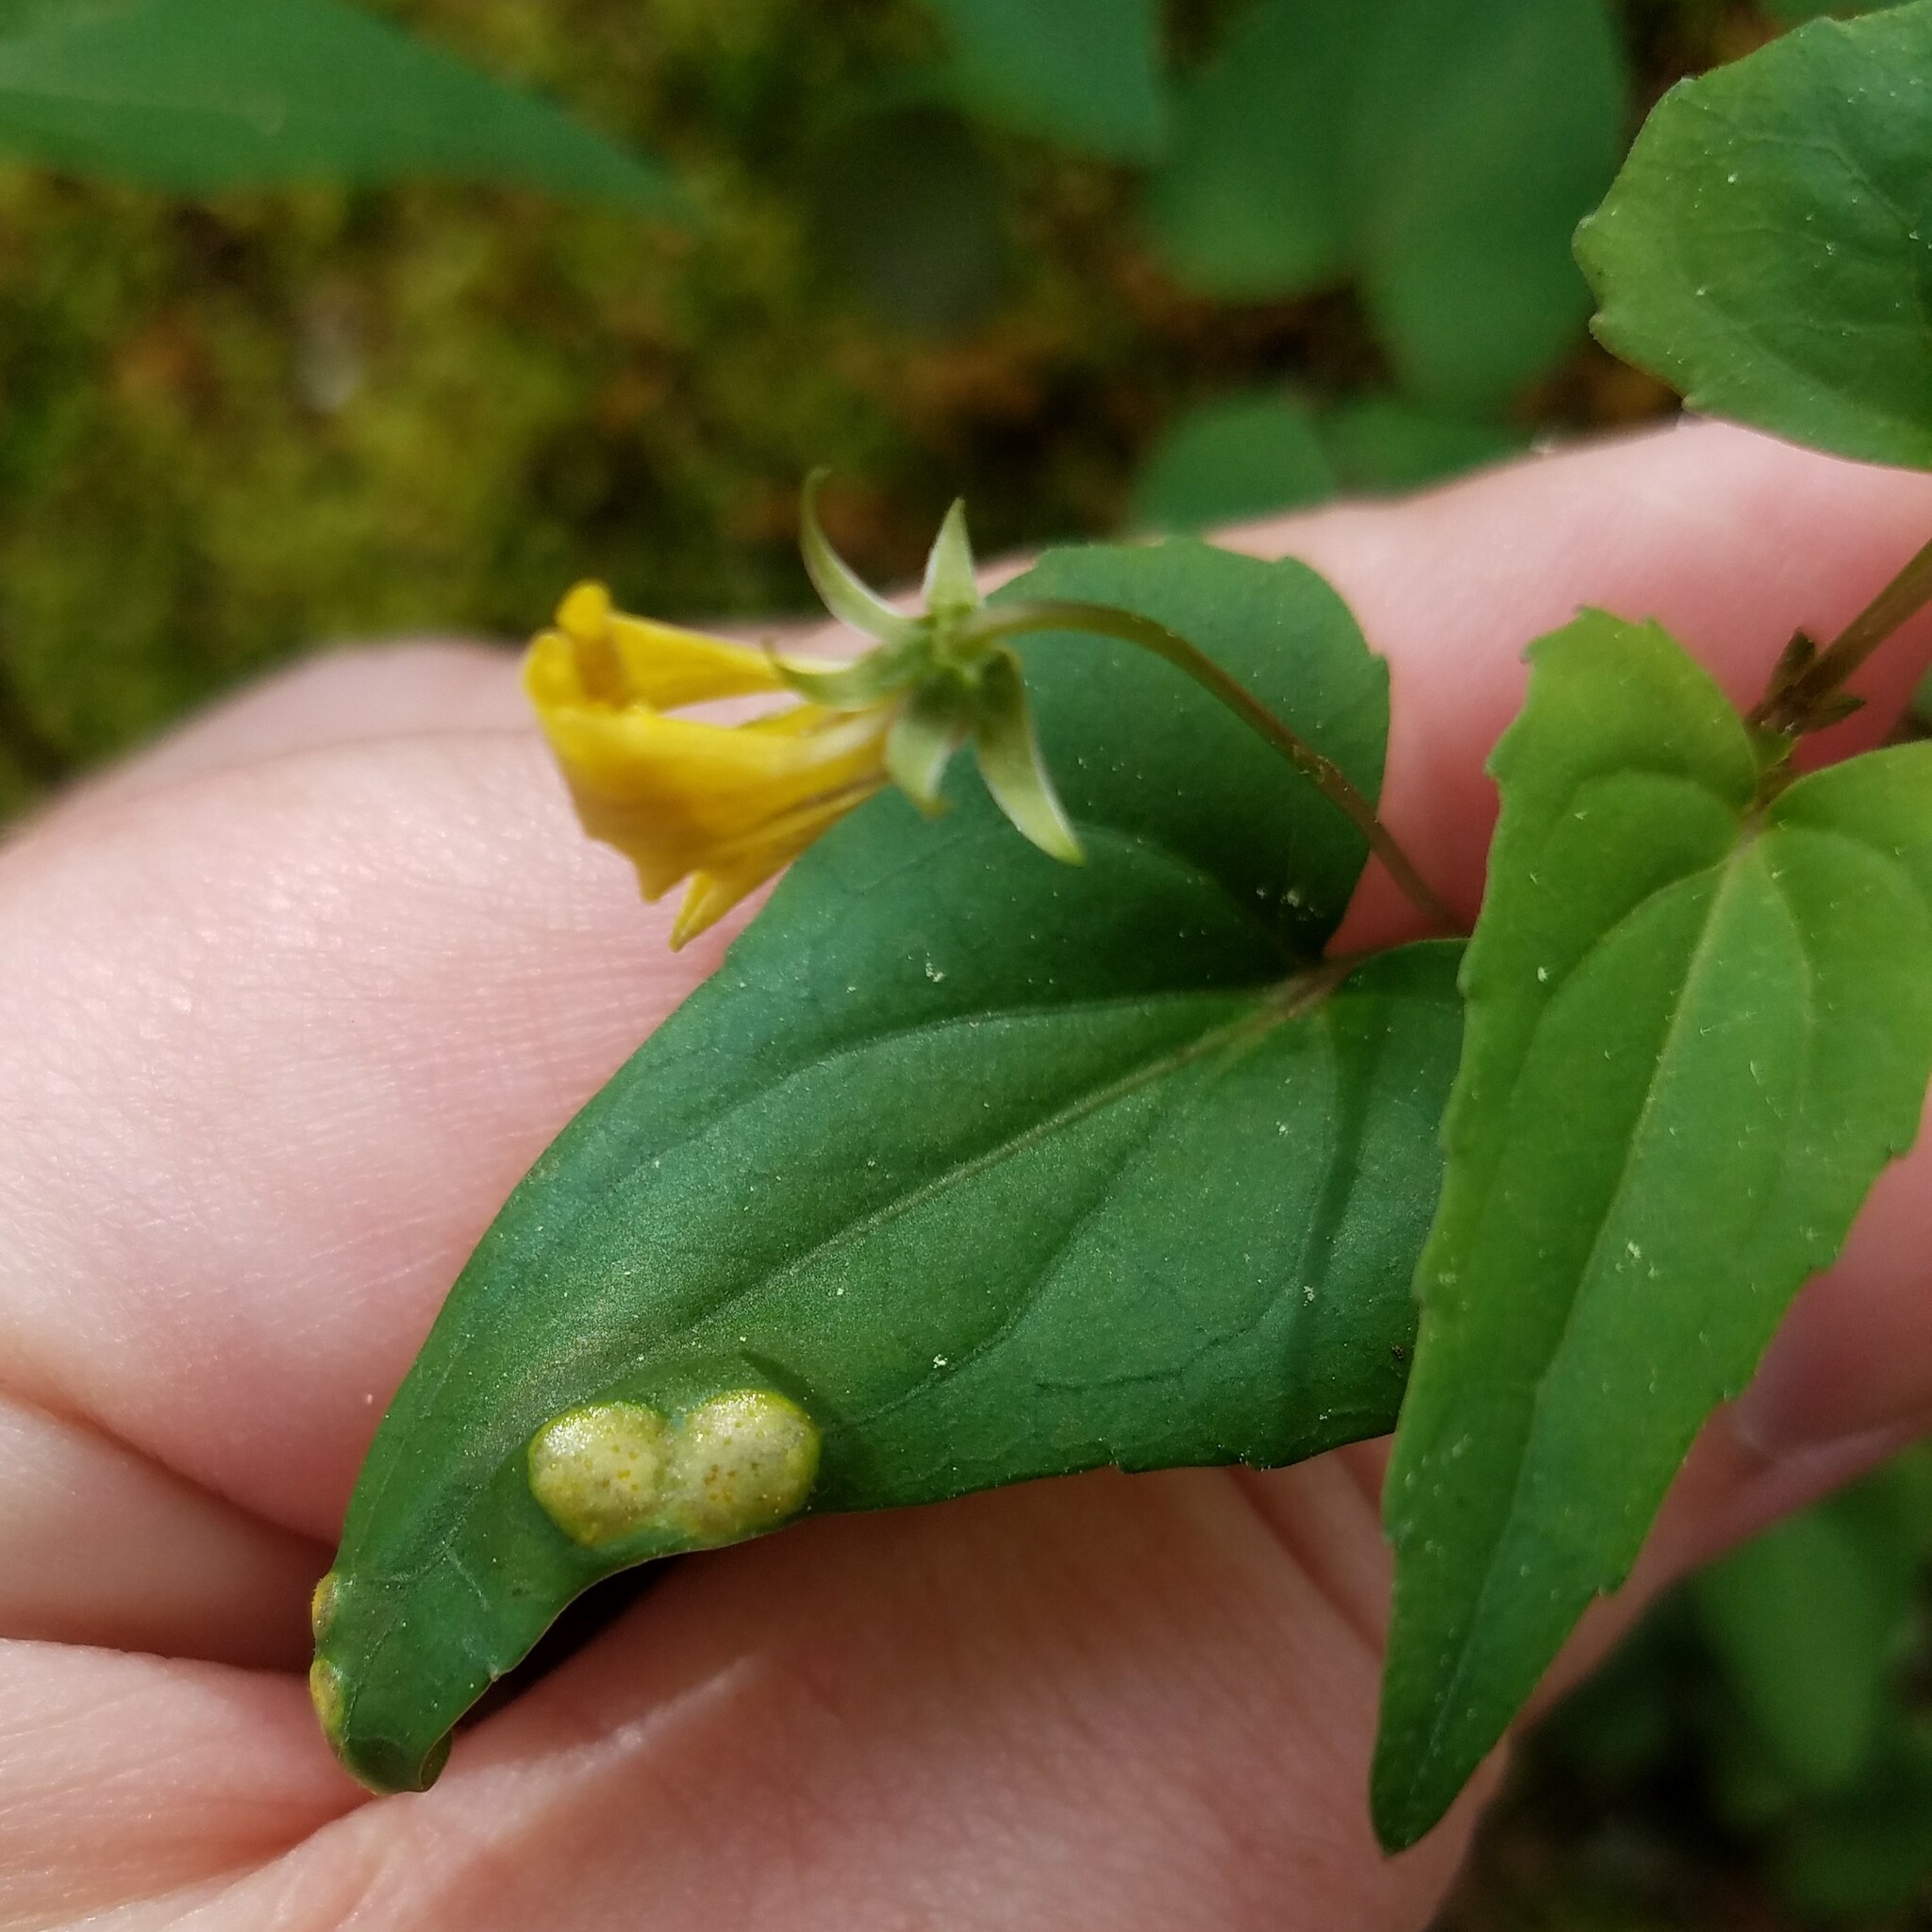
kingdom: Fungi
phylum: Basidiomycota
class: Pucciniomycetes
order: Pucciniales
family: Pucciniaceae
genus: Puccinia
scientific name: Puccinia violae
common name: Violet rust
